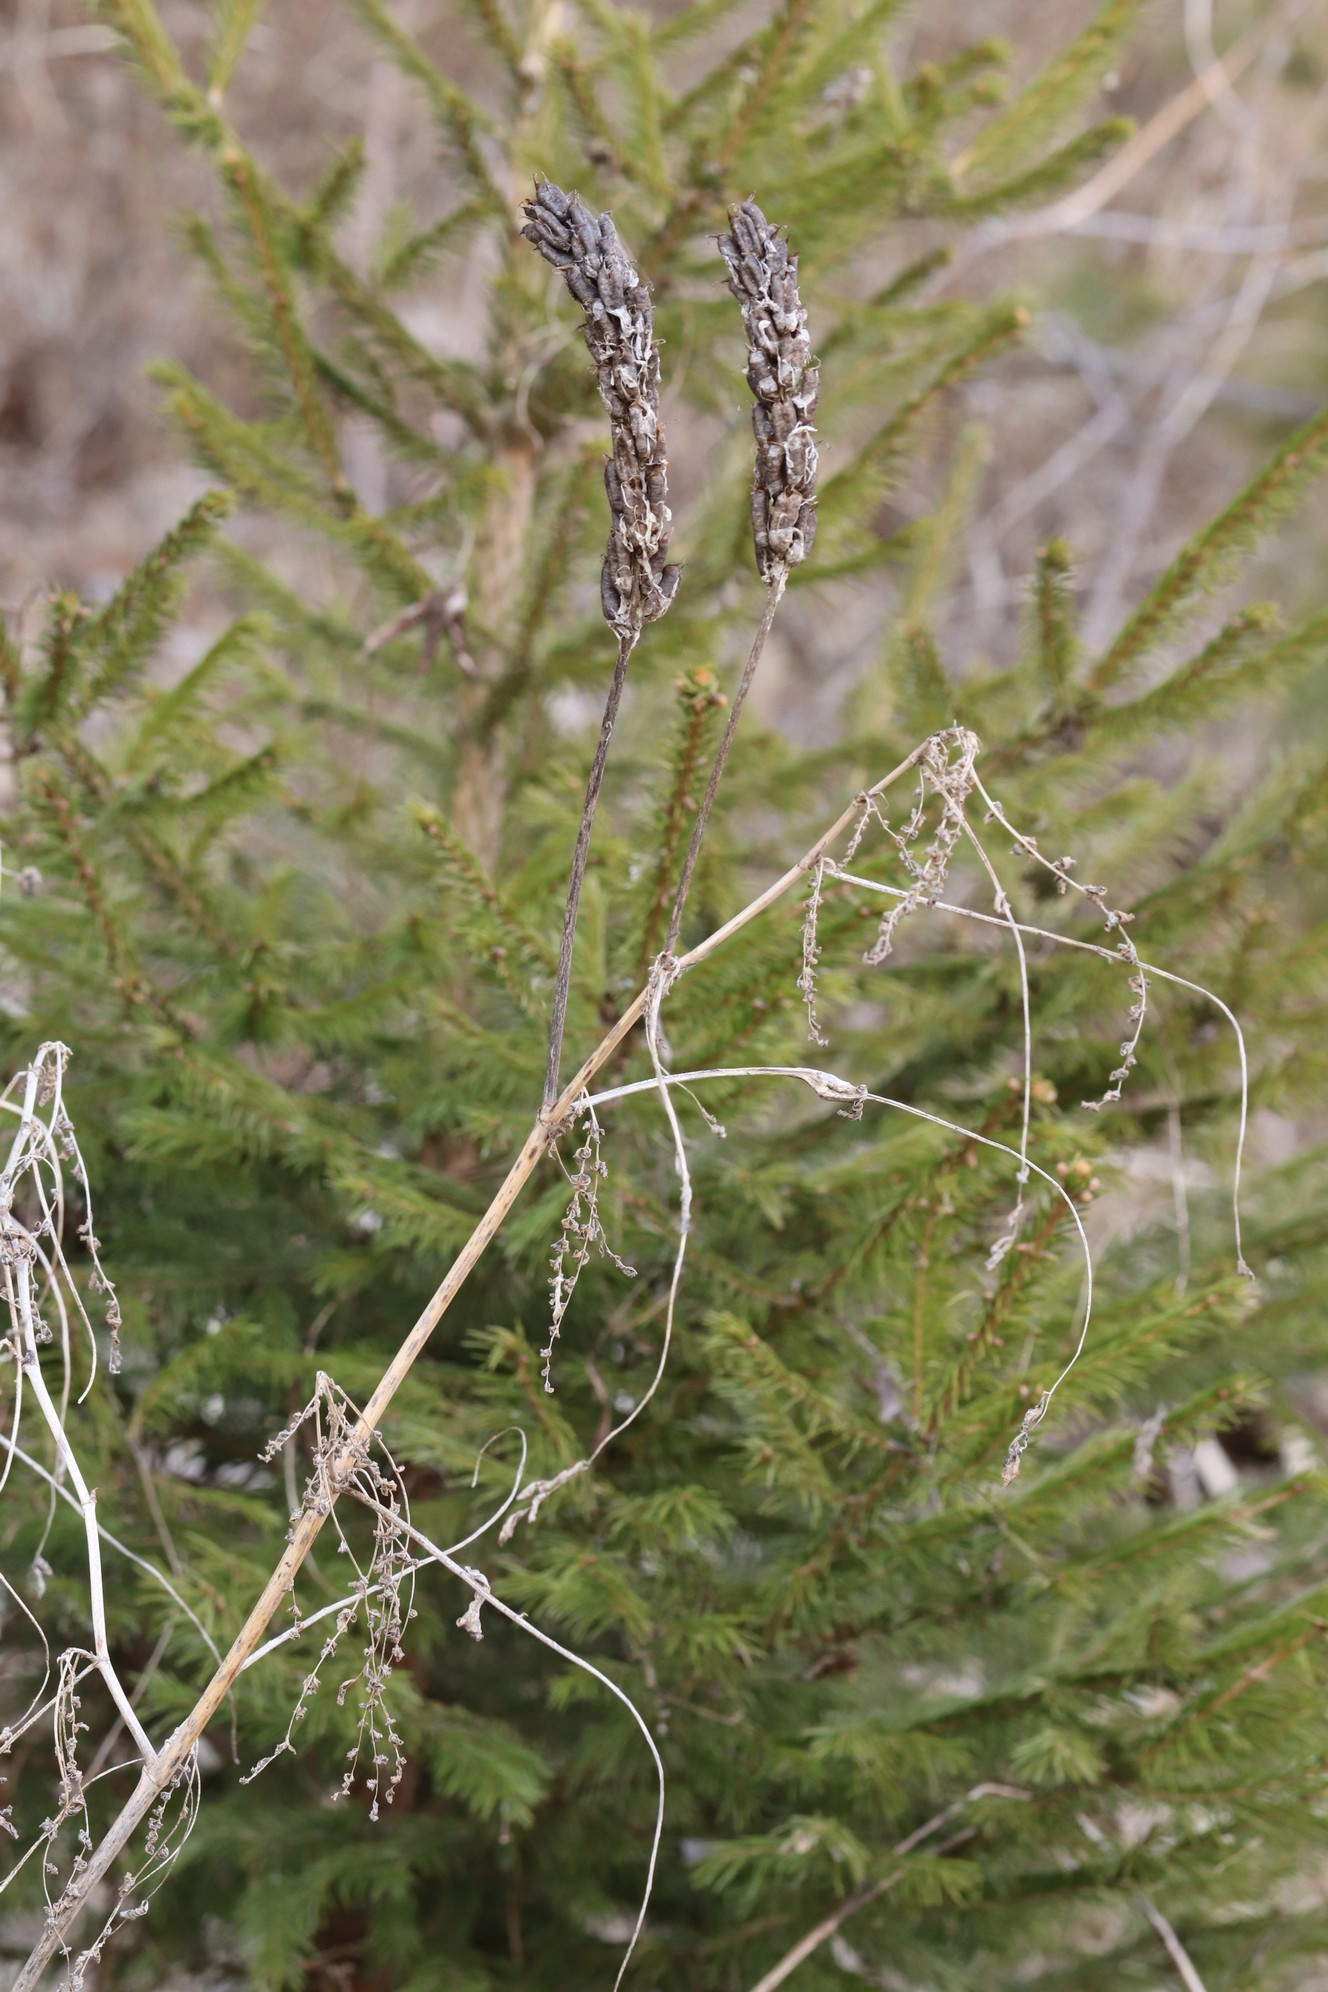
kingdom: Plantae
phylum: Tracheophyta
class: Magnoliopsida
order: Fabales
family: Fabaceae
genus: Astragalus
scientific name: Astragalus uliginosus
